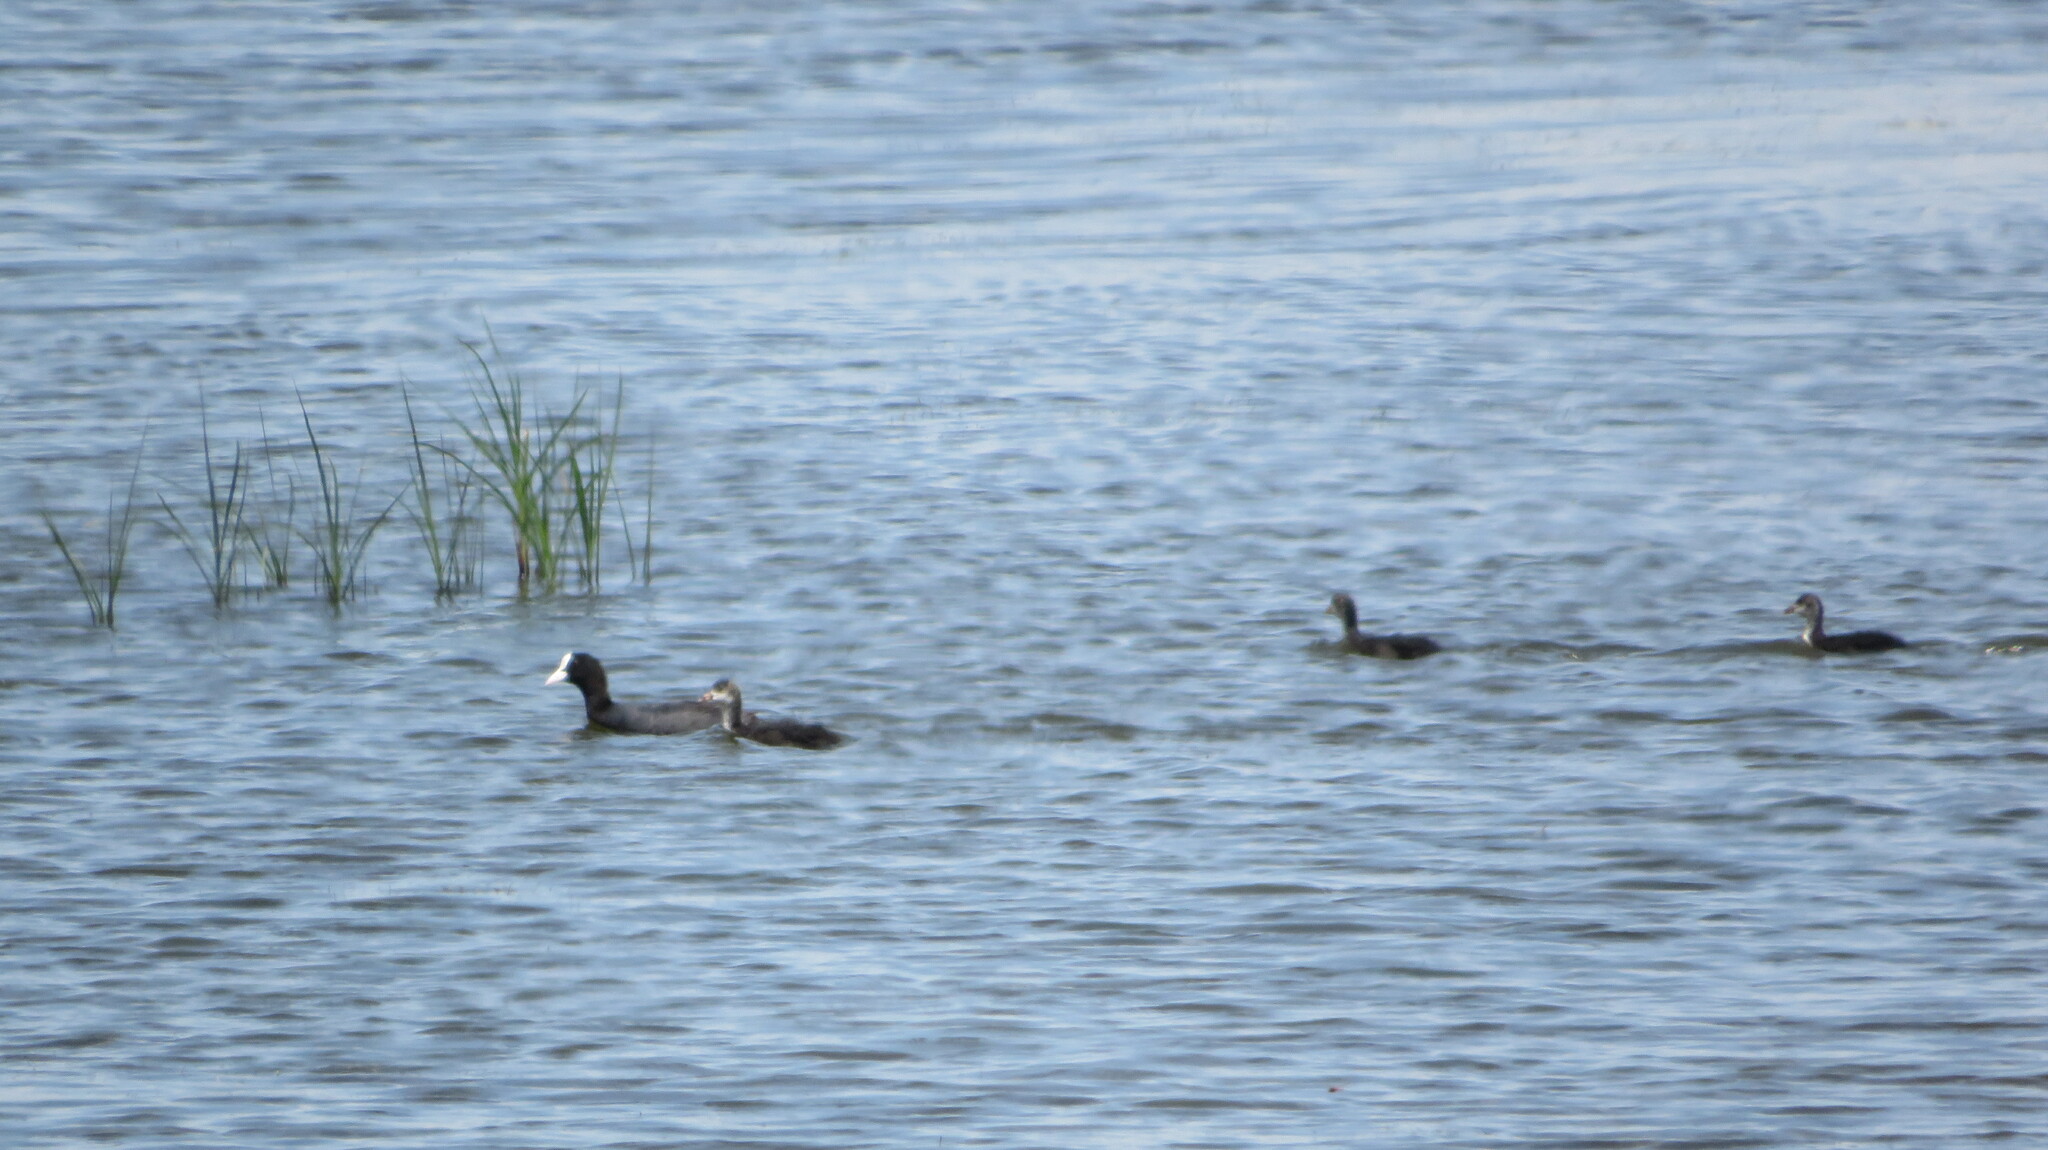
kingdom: Animalia
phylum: Chordata
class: Aves
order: Gruiformes
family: Rallidae
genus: Fulica
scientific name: Fulica atra
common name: Eurasian coot
